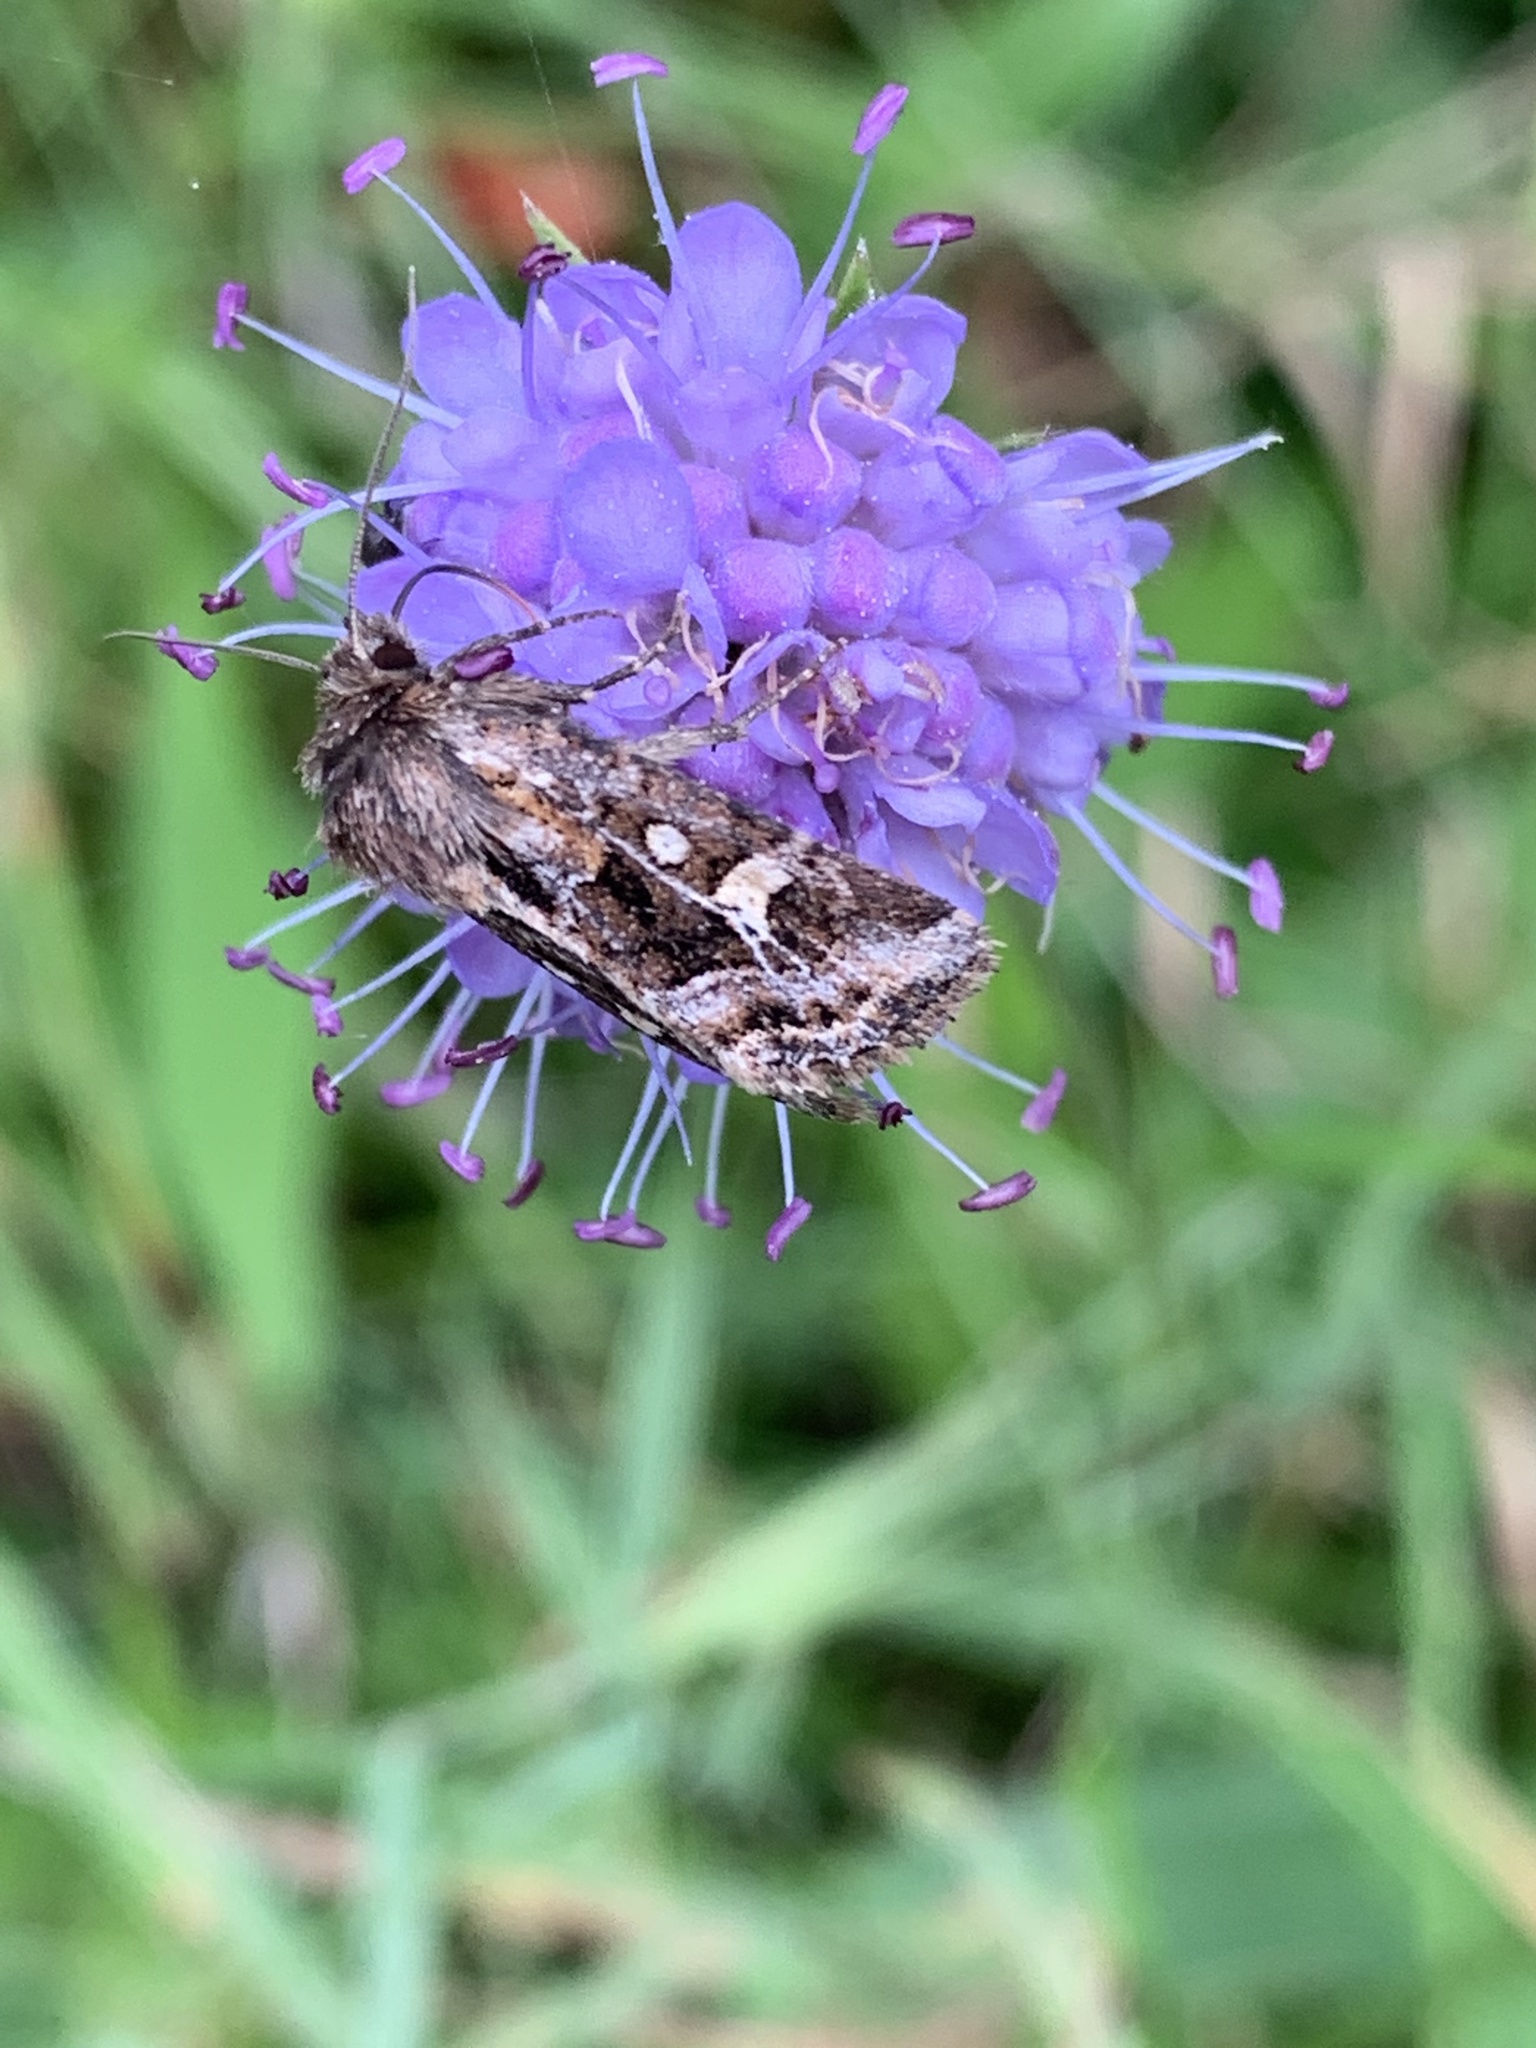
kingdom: Animalia
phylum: Arthropoda
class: Insecta
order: Lepidoptera
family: Noctuidae
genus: Celaena
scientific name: Celaena haworthii
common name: Haworth's minor
